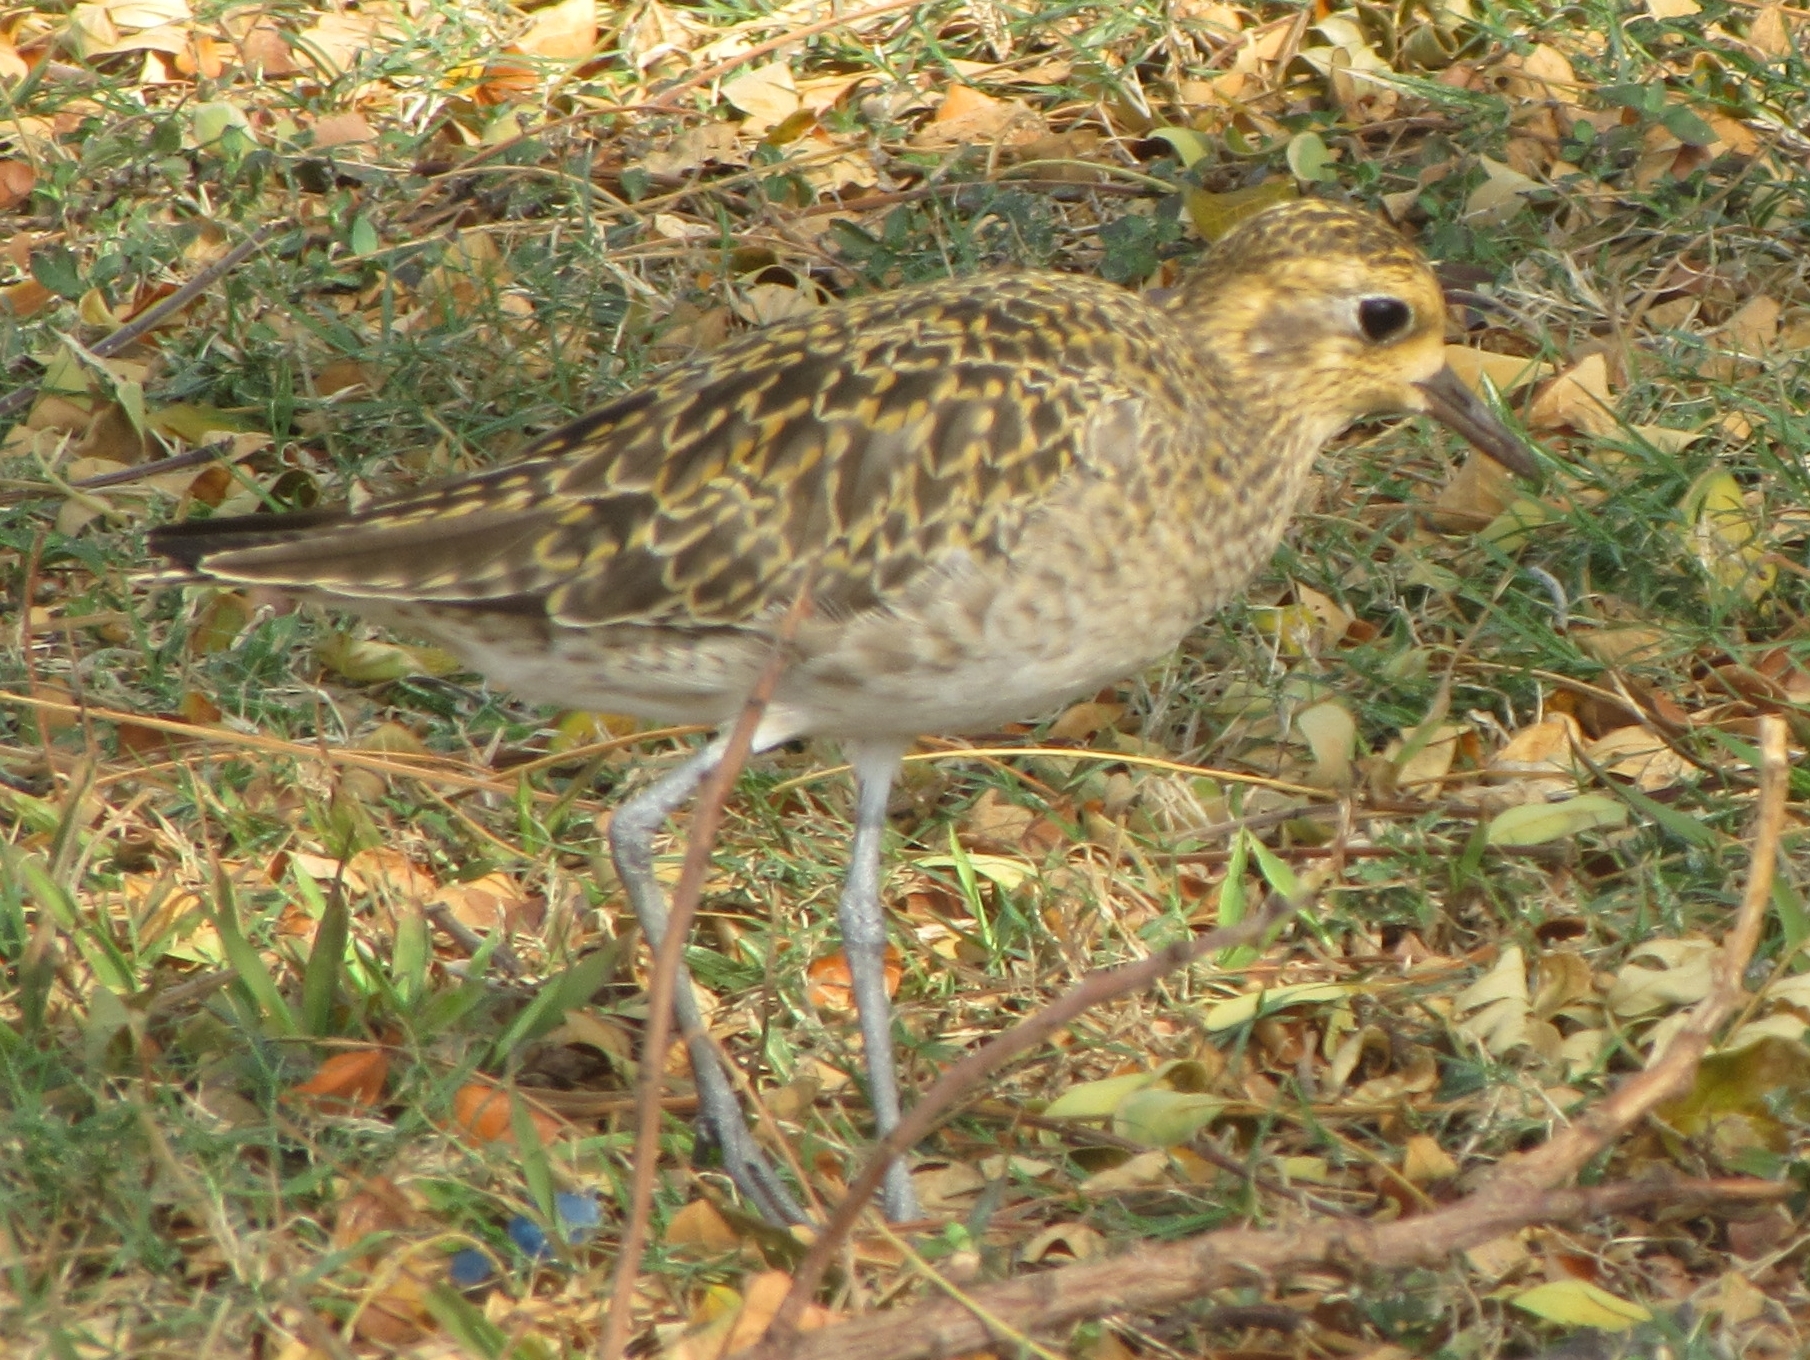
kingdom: Animalia
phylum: Chordata
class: Aves
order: Charadriiformes
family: Charadriidae
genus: Pluvialis
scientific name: Pluvialis fulva
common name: Pacific golden plover
